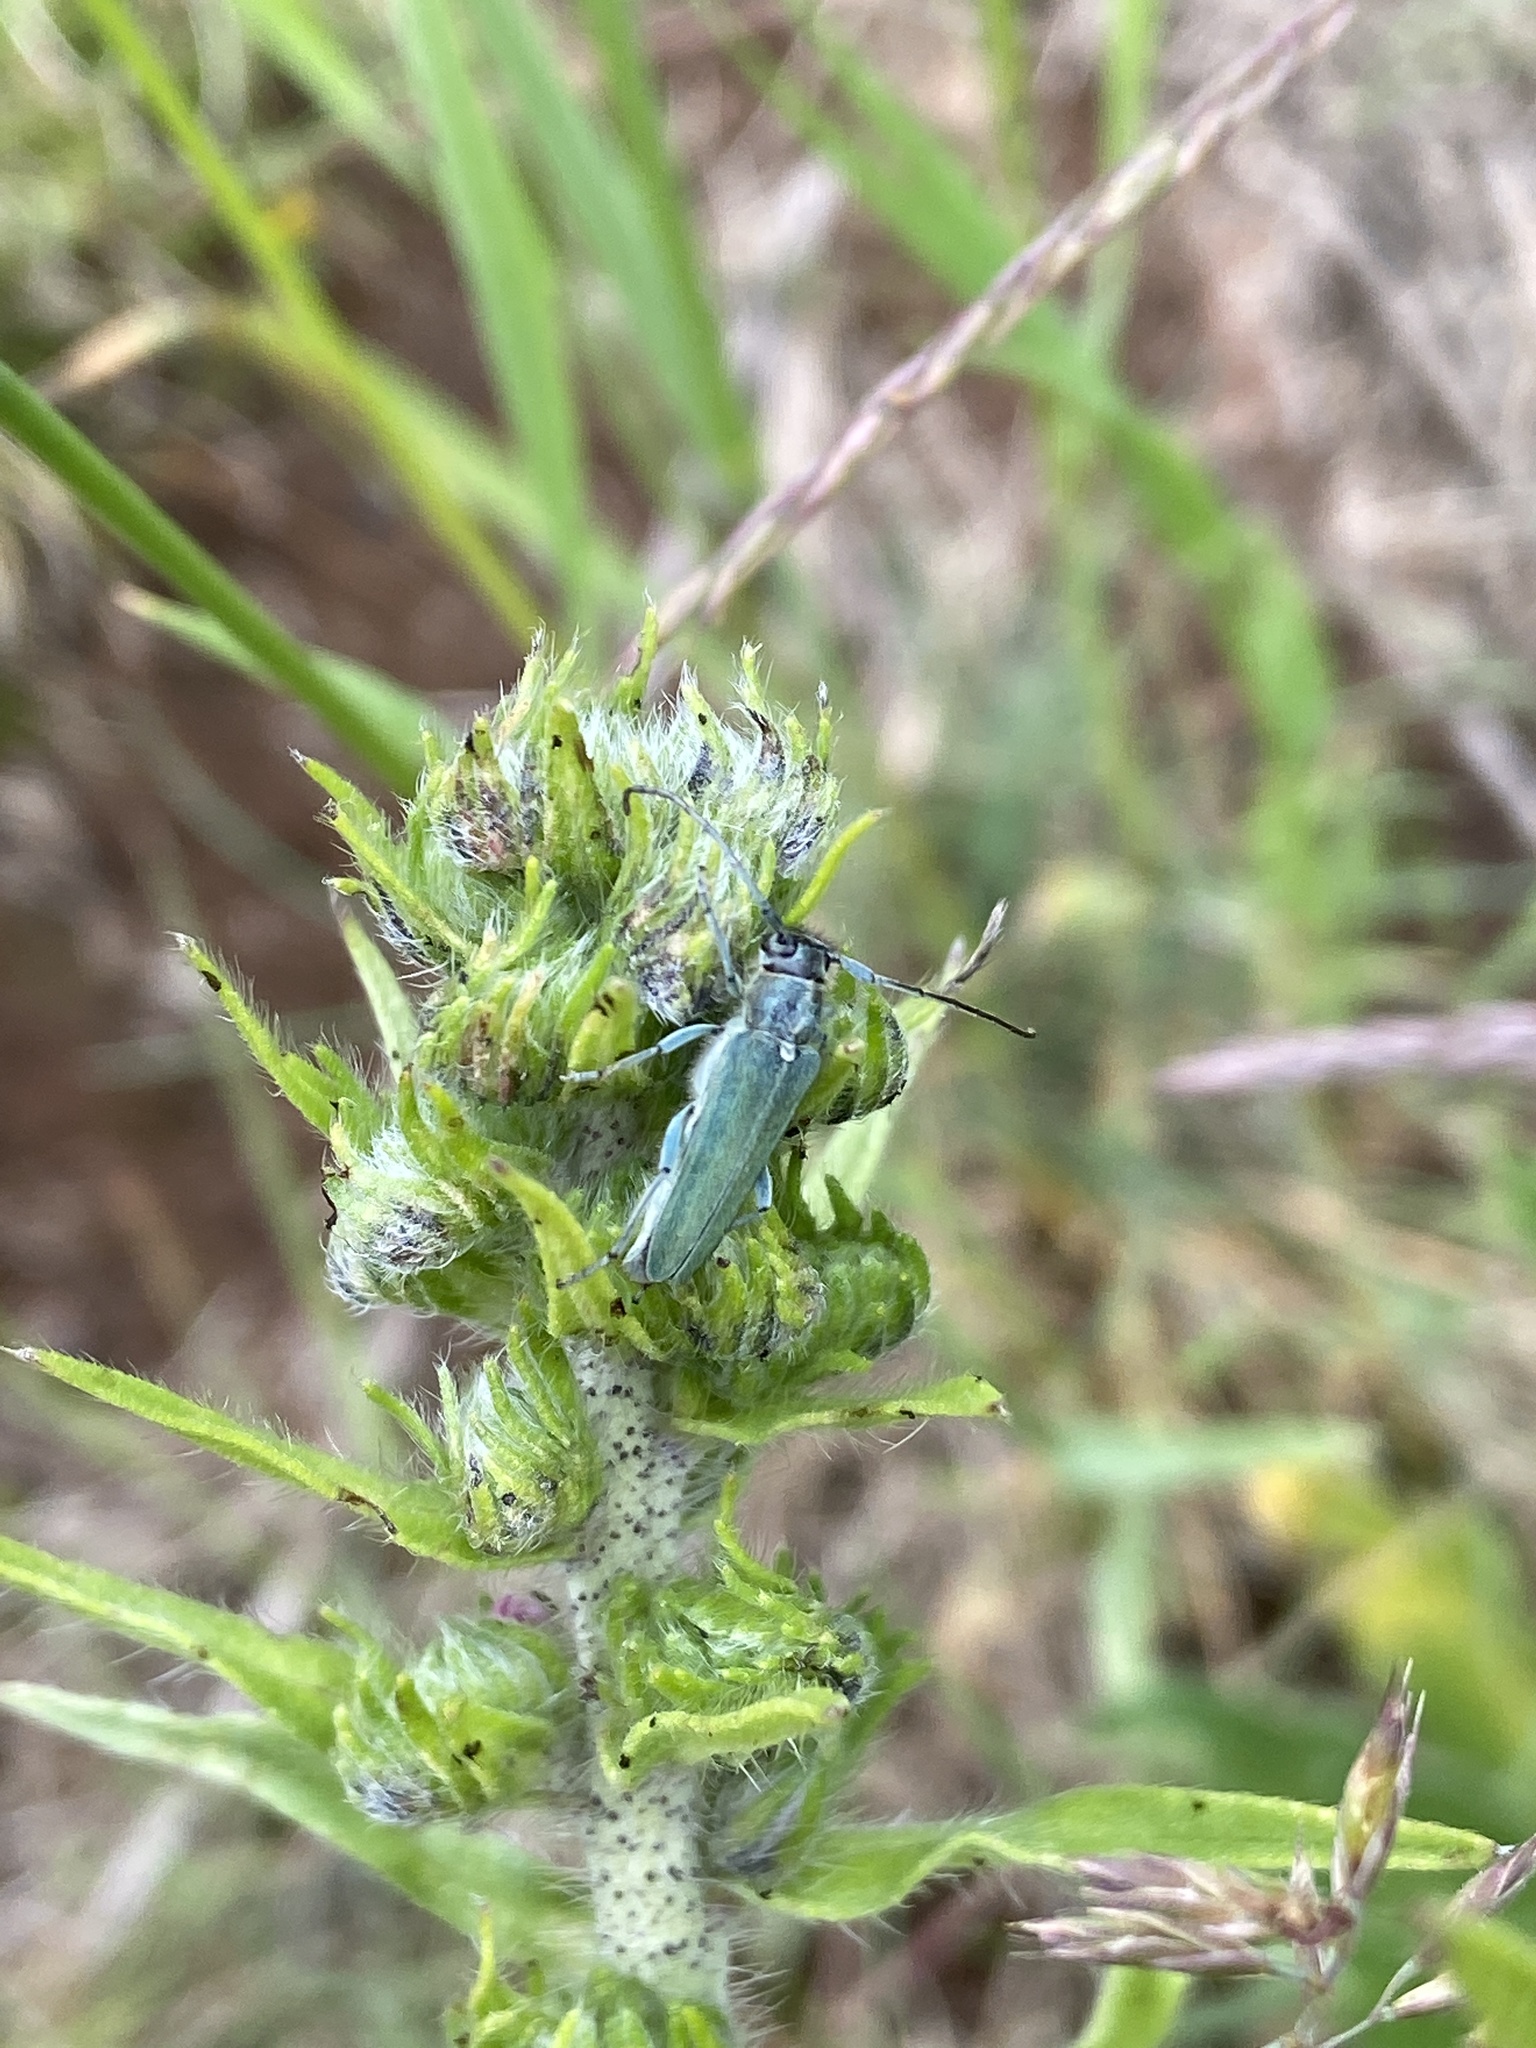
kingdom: Animalia
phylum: Arthropoda
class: Insecta
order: Coleoptera
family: Cerambycidae
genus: Phytoecia
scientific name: Phytoecia coerulescens
